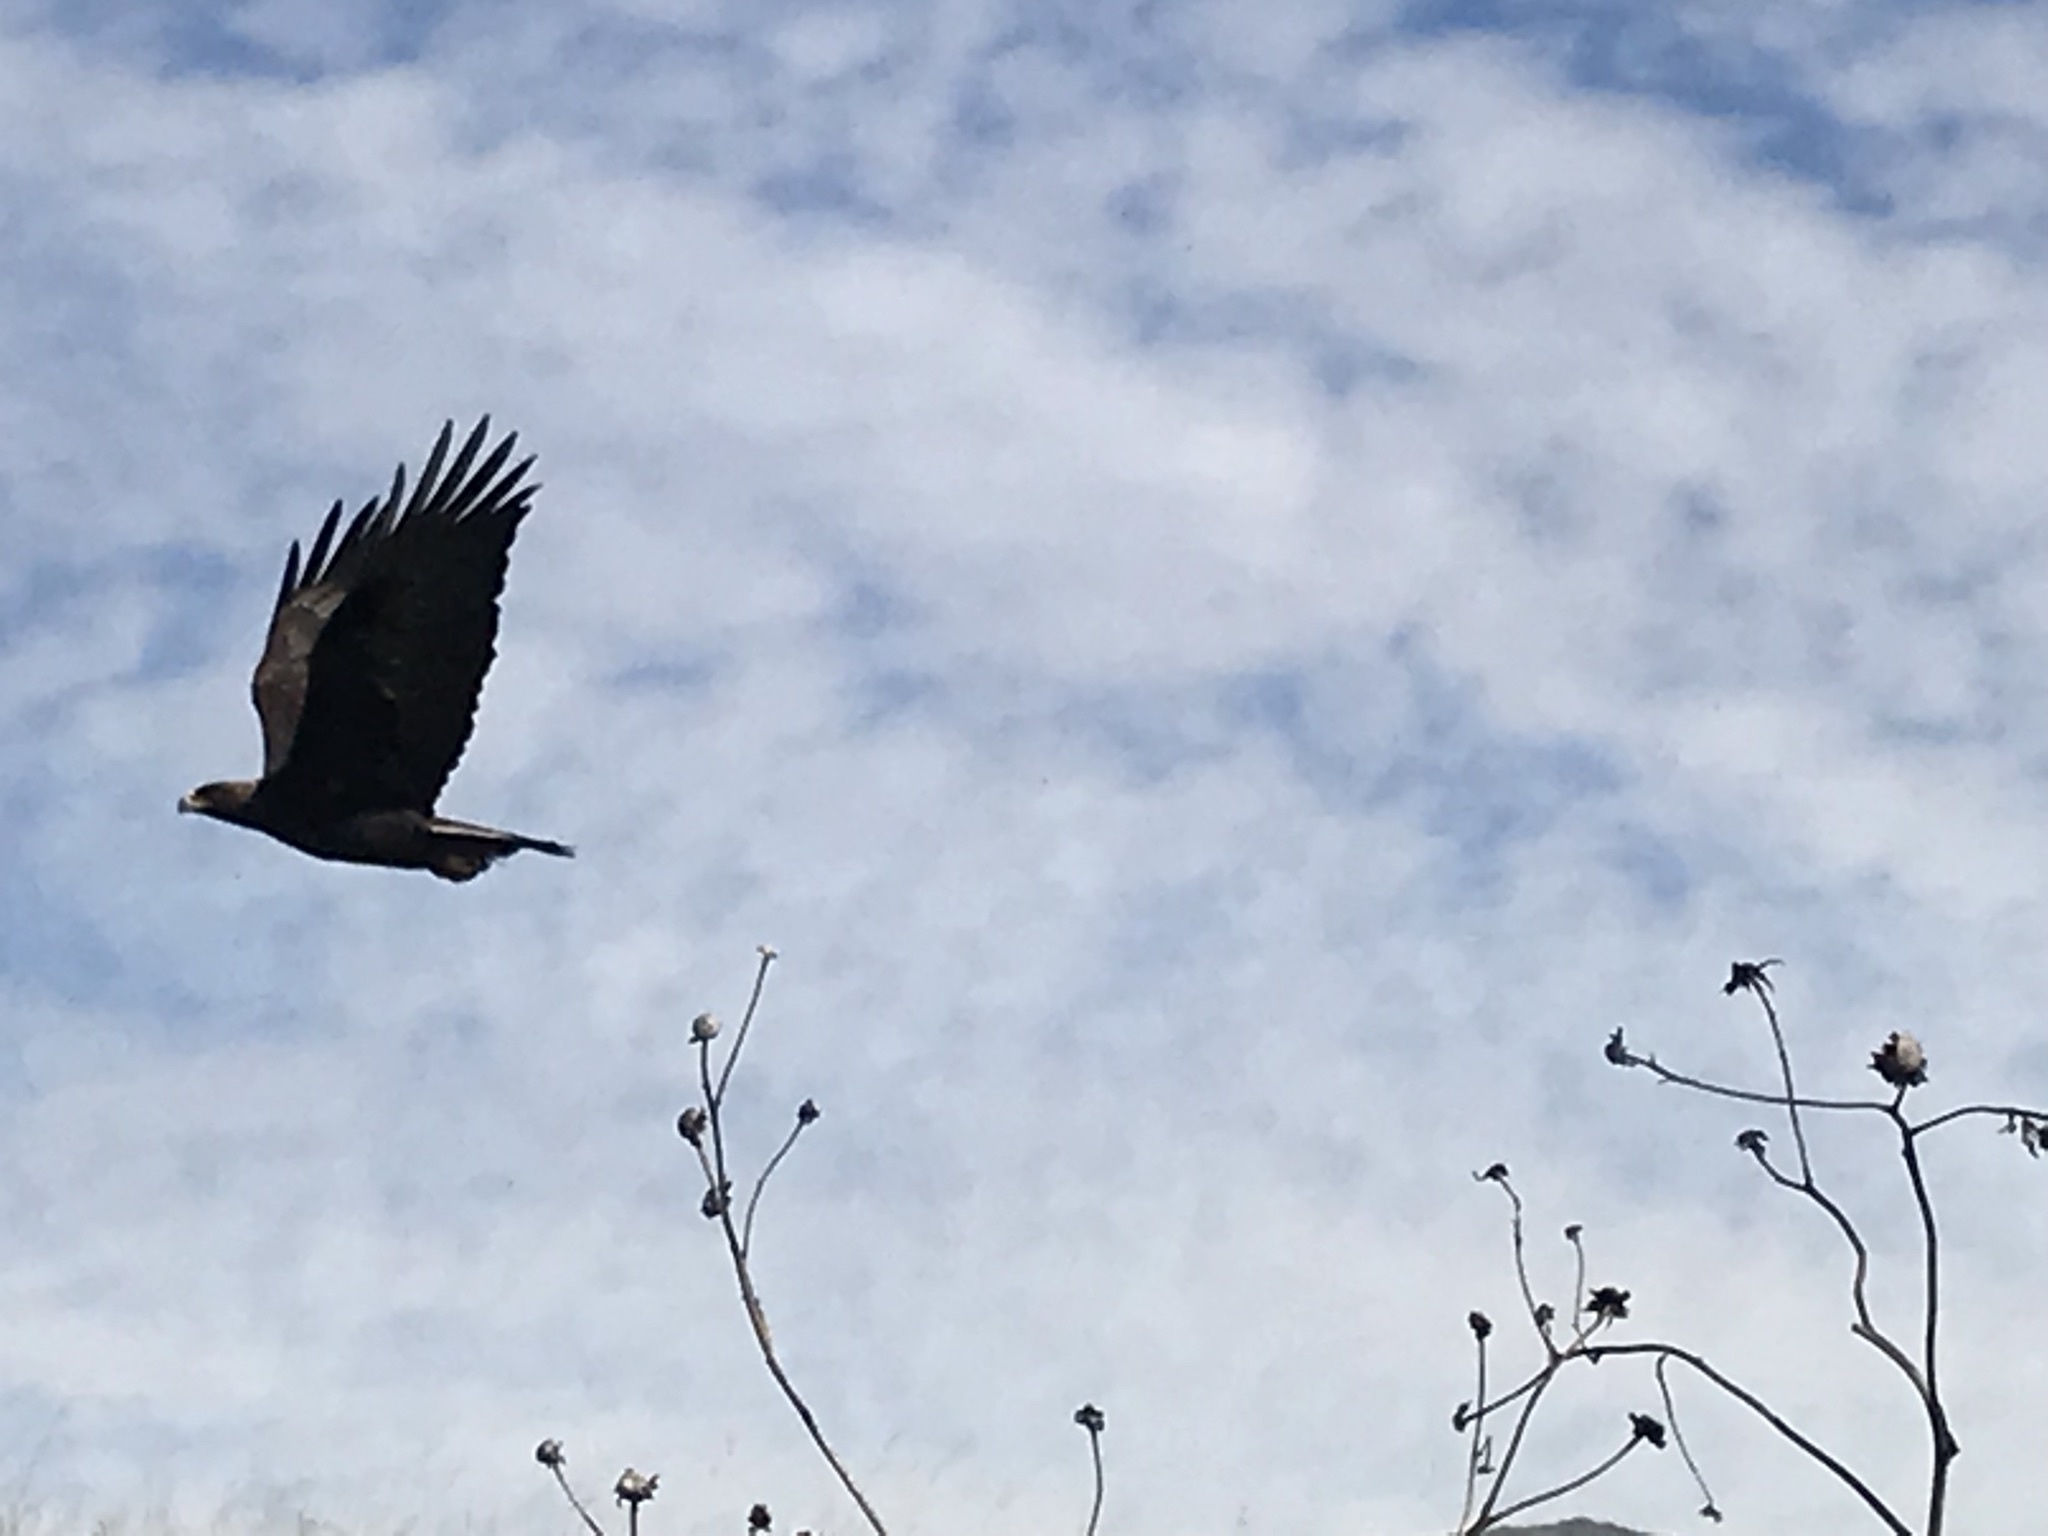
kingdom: Animalia
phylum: Chordata
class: Aves
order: Accipitriformes
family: Accipitridae
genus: Aquila
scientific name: Aquila chrysaetos
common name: Golden eagle
